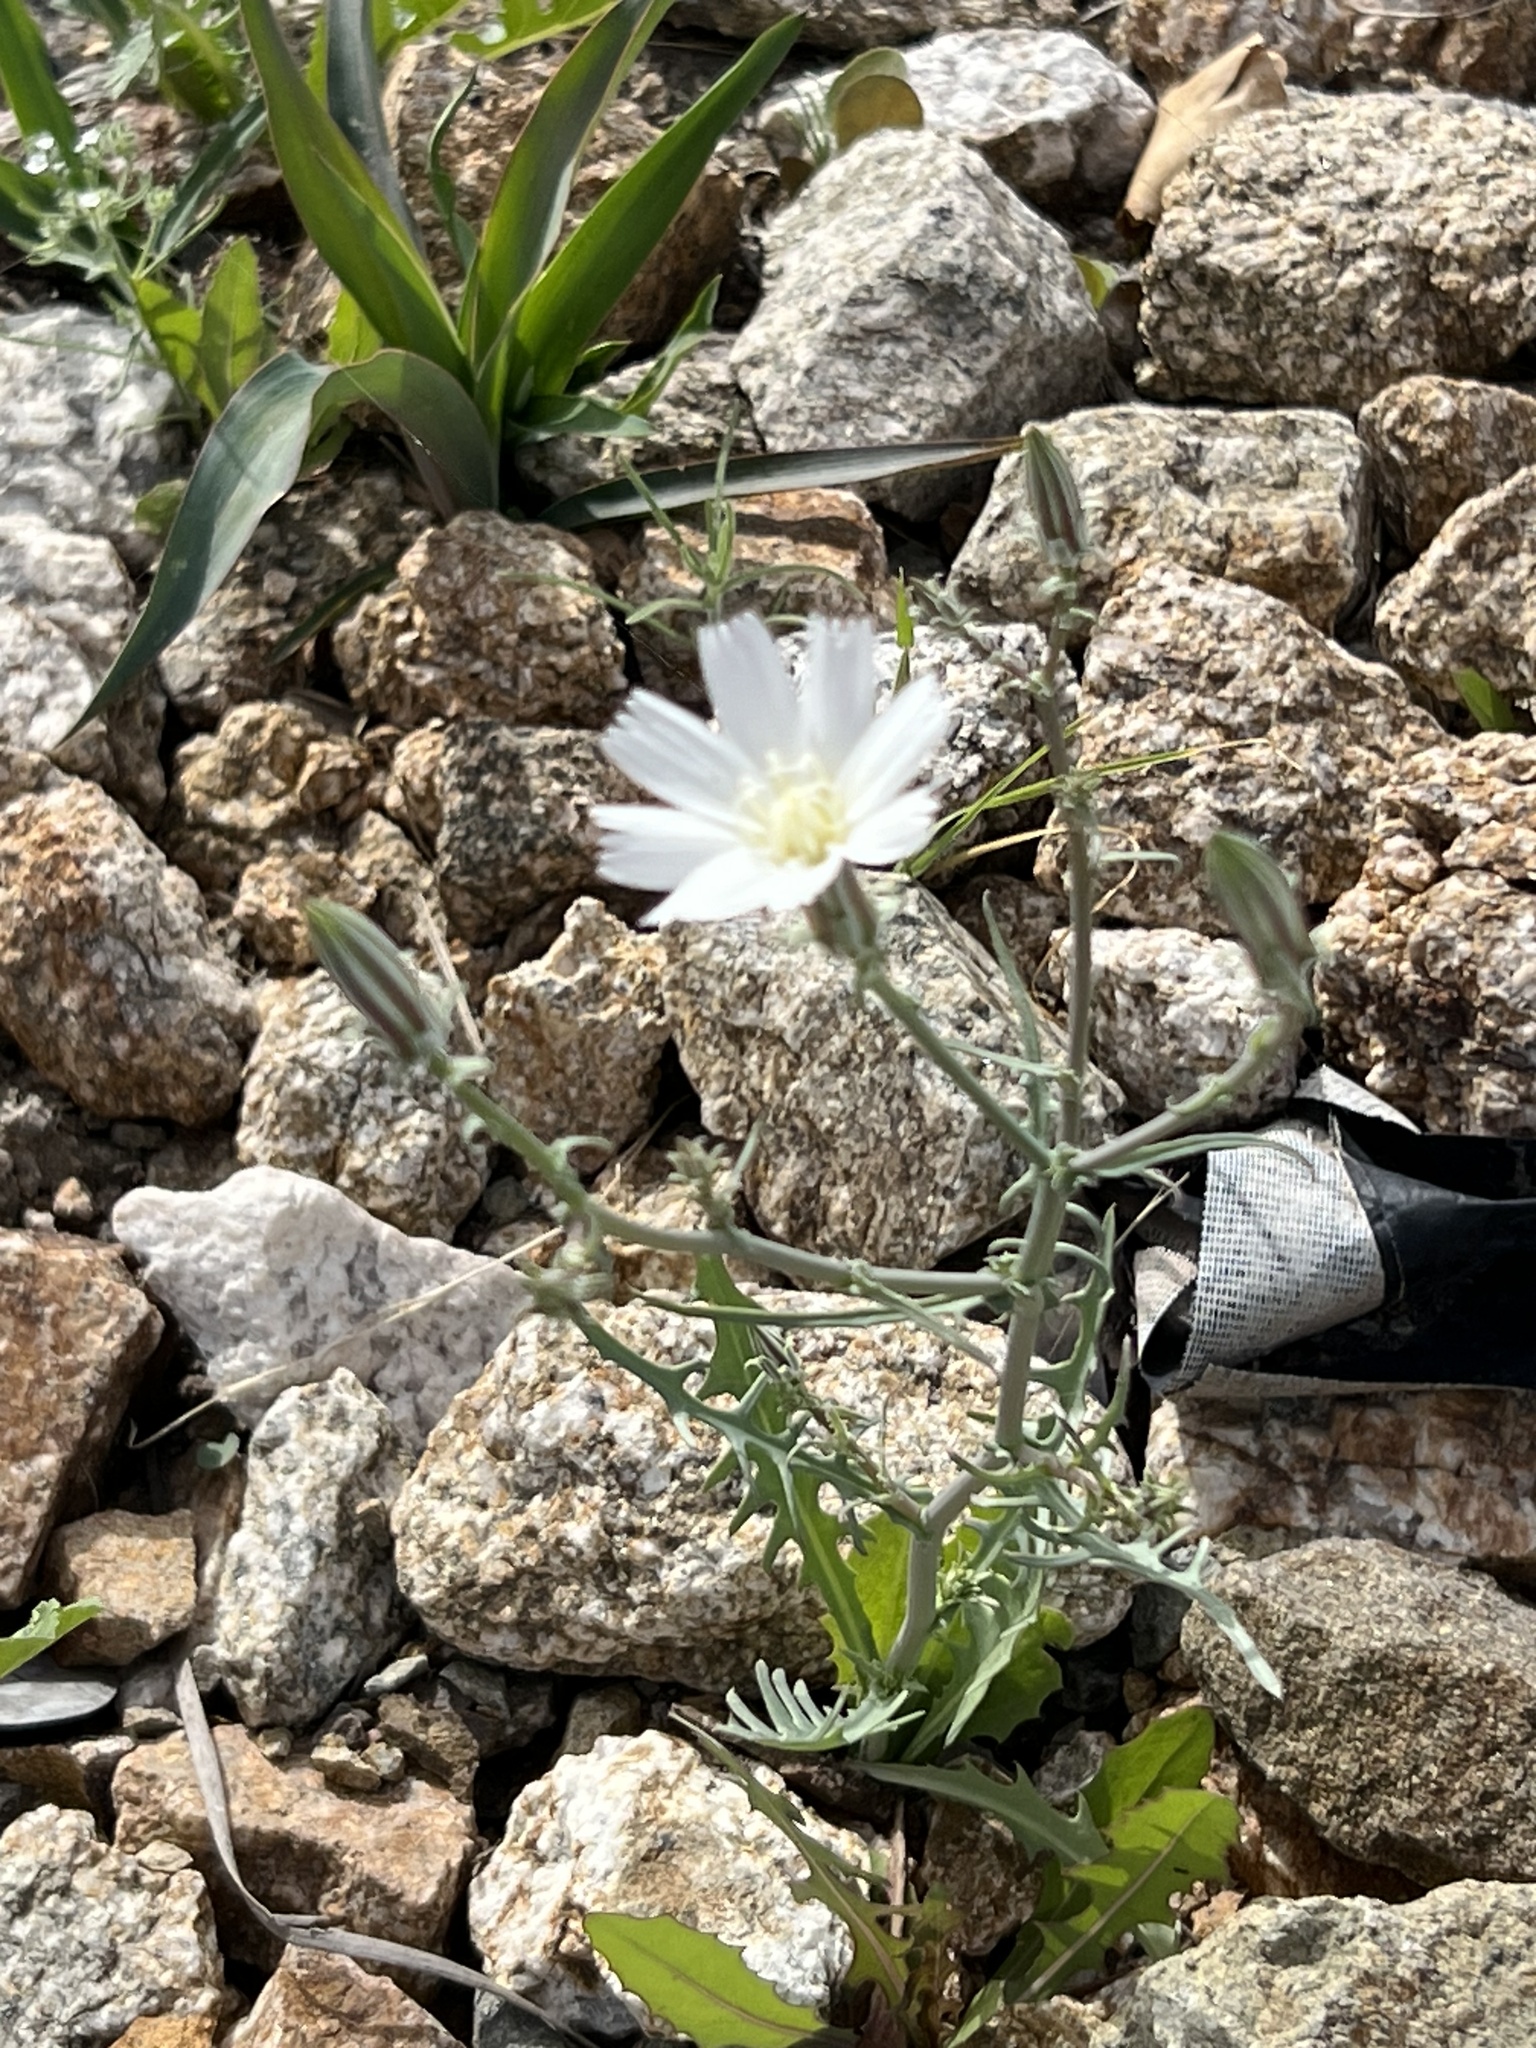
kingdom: Plantae
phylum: Tracheophyta
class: Magnoliopsida
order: Asterales
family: Asteraceae
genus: Calycoseris
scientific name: Calycoseris wrightii
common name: White tackstem
